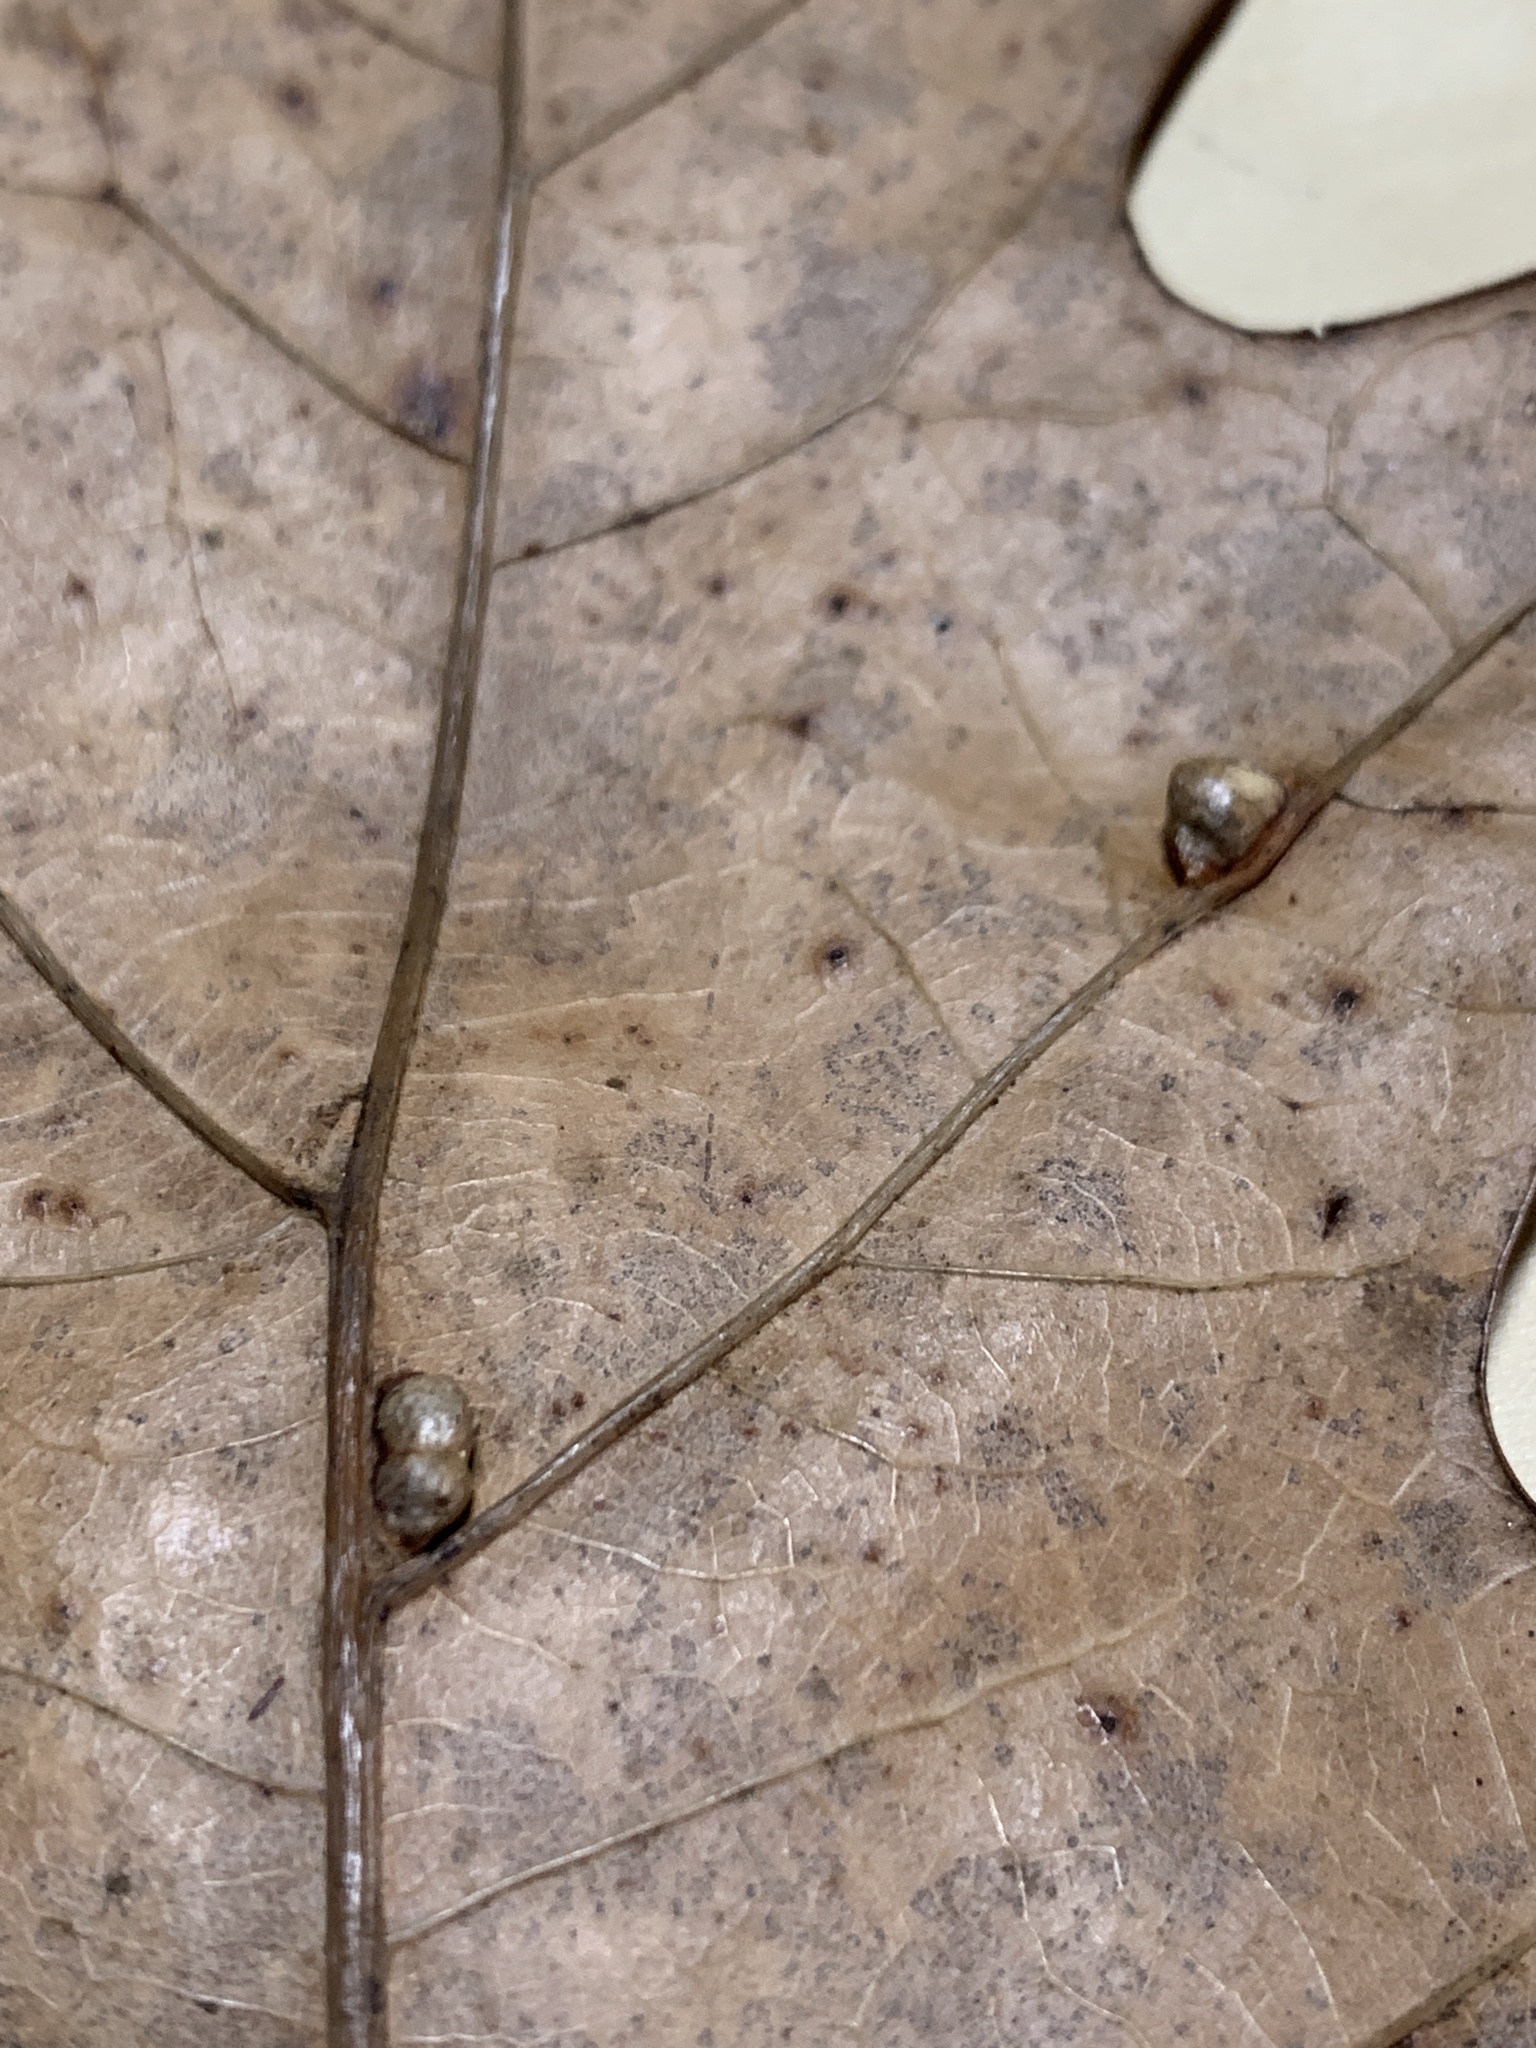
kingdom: Animalia
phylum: Arthropoda
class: Insecta
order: Diptera
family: Cecidomyiidae
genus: Macrodiplosis
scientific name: Macrodiplosis majalis
